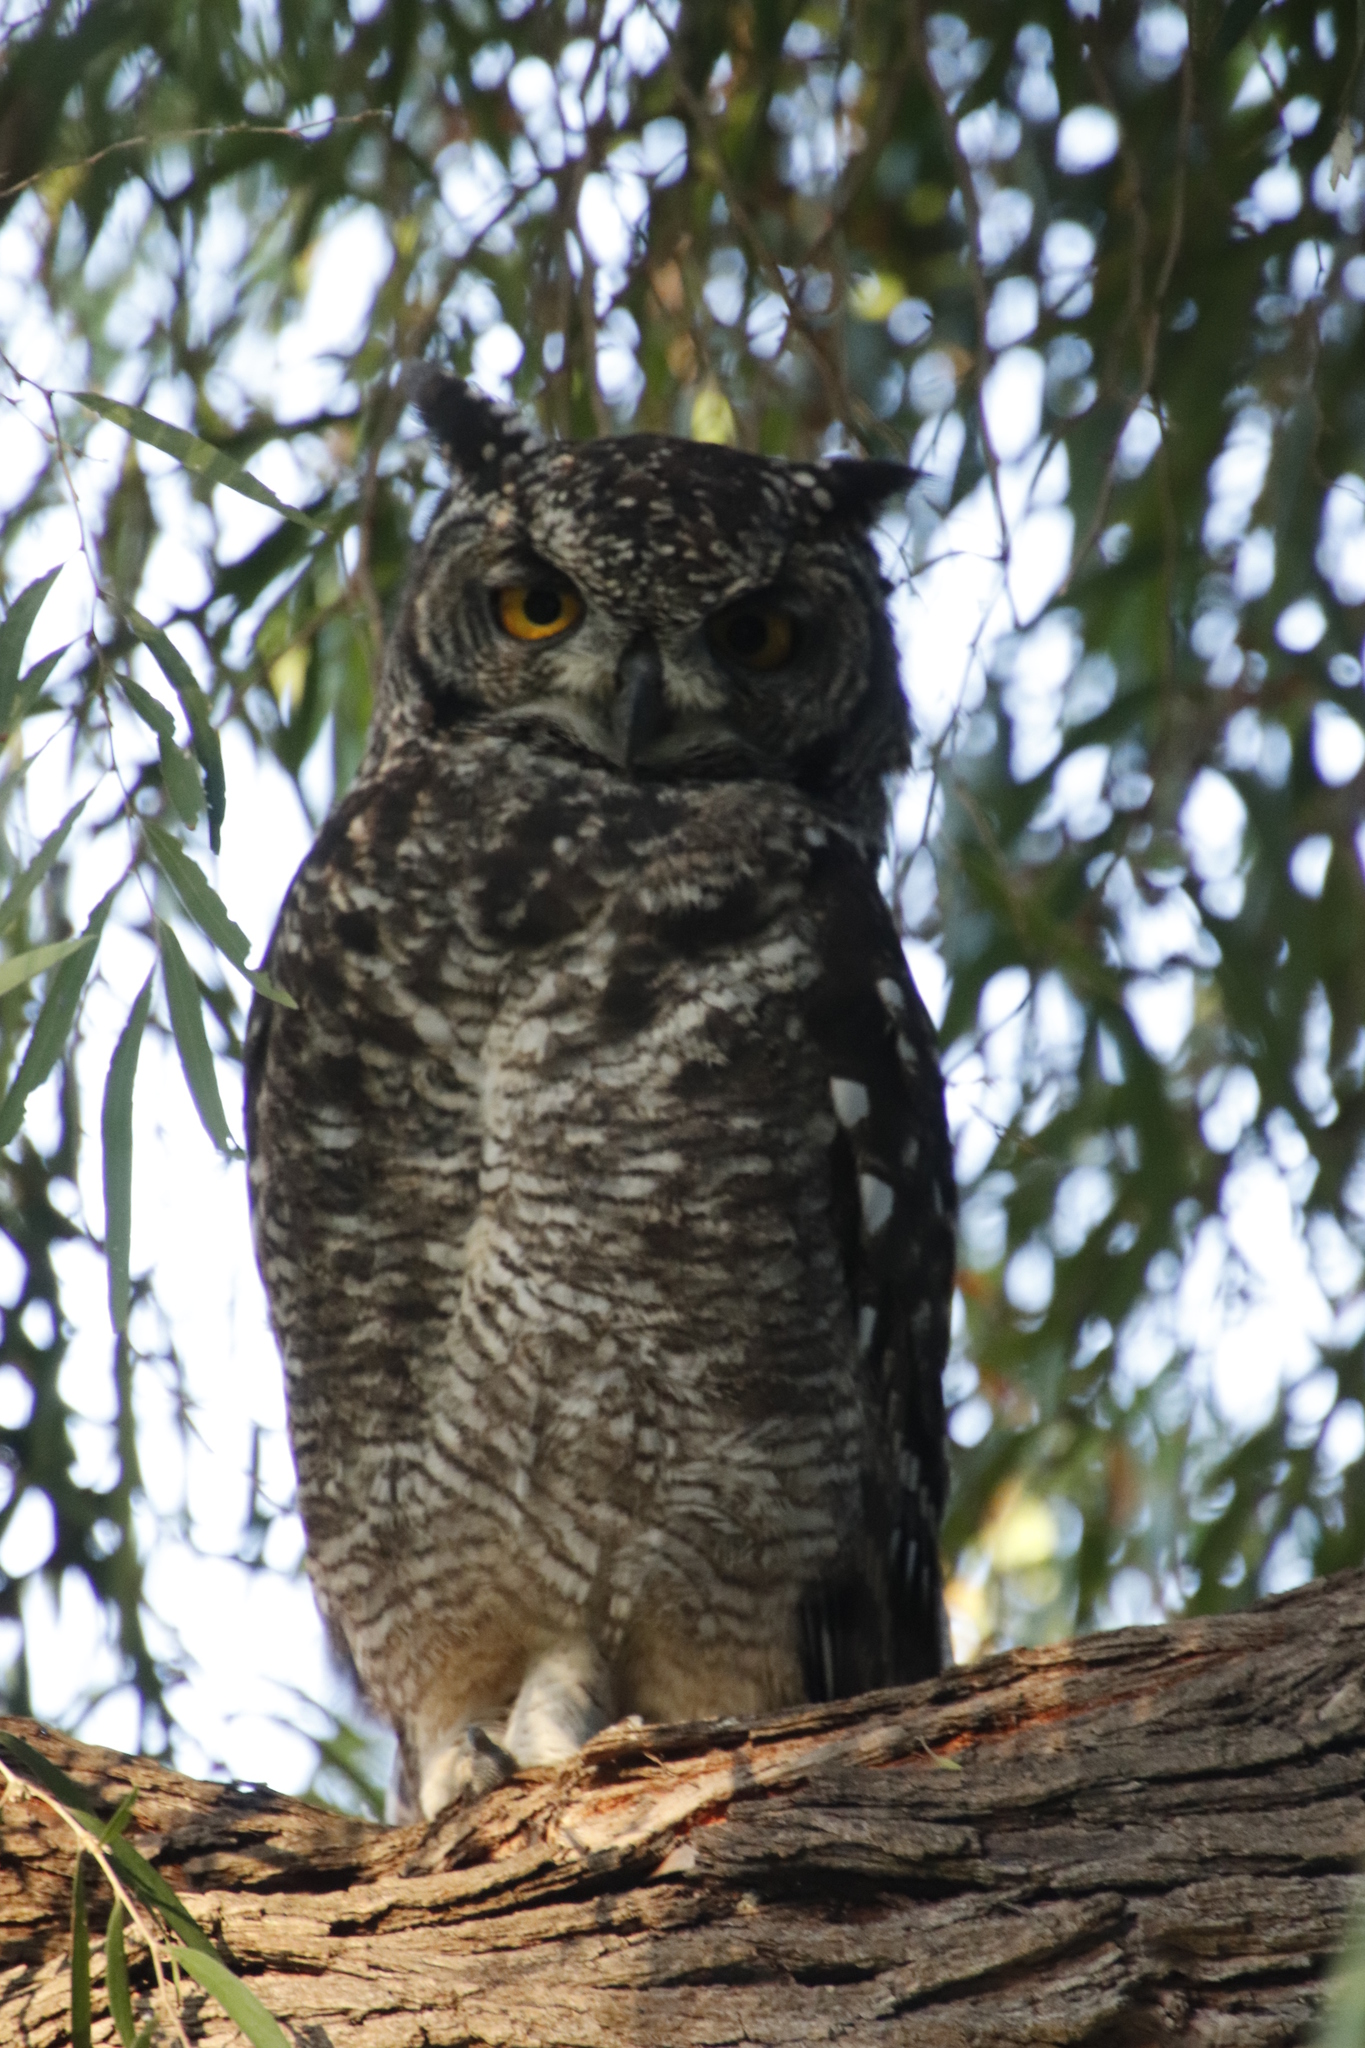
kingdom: Animalia
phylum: Chordata
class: Aves
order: Strigiformes
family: Strigidae
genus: Bubo
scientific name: Bubo africanus
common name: Spotted eagle-owl
